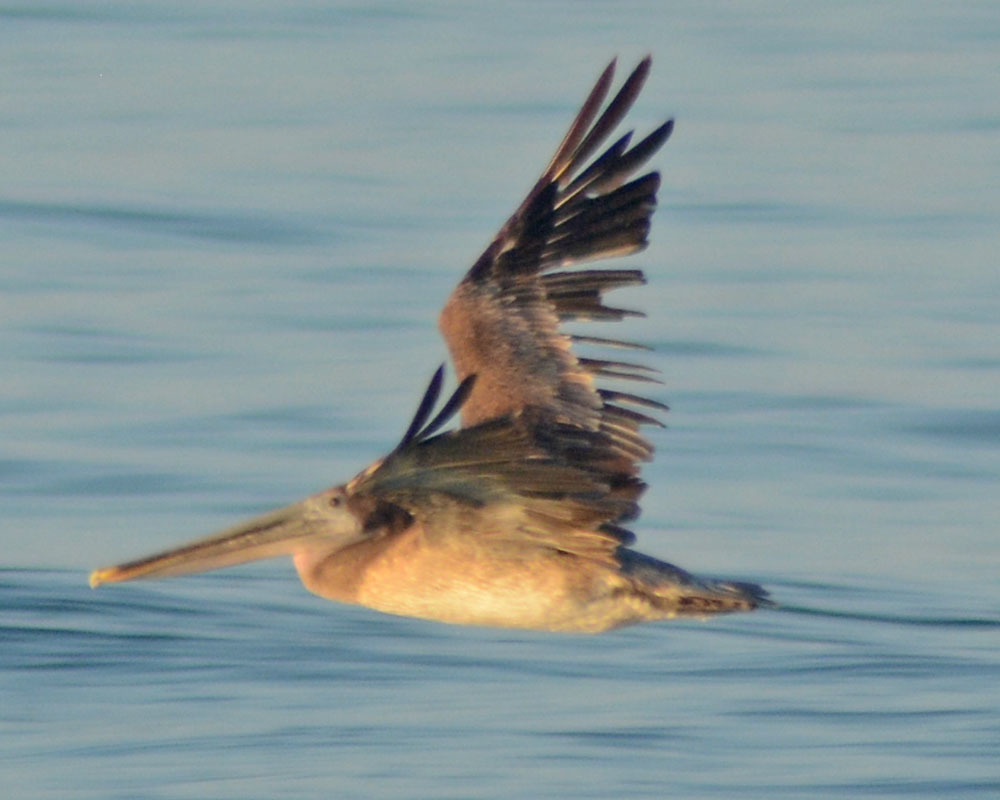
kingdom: Animalia
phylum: Chordata
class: Aves
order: Pelecaniformes
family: Pelecanidae
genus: Pelecanus
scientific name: Pelecanus occidentalis
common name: Brown pelican
